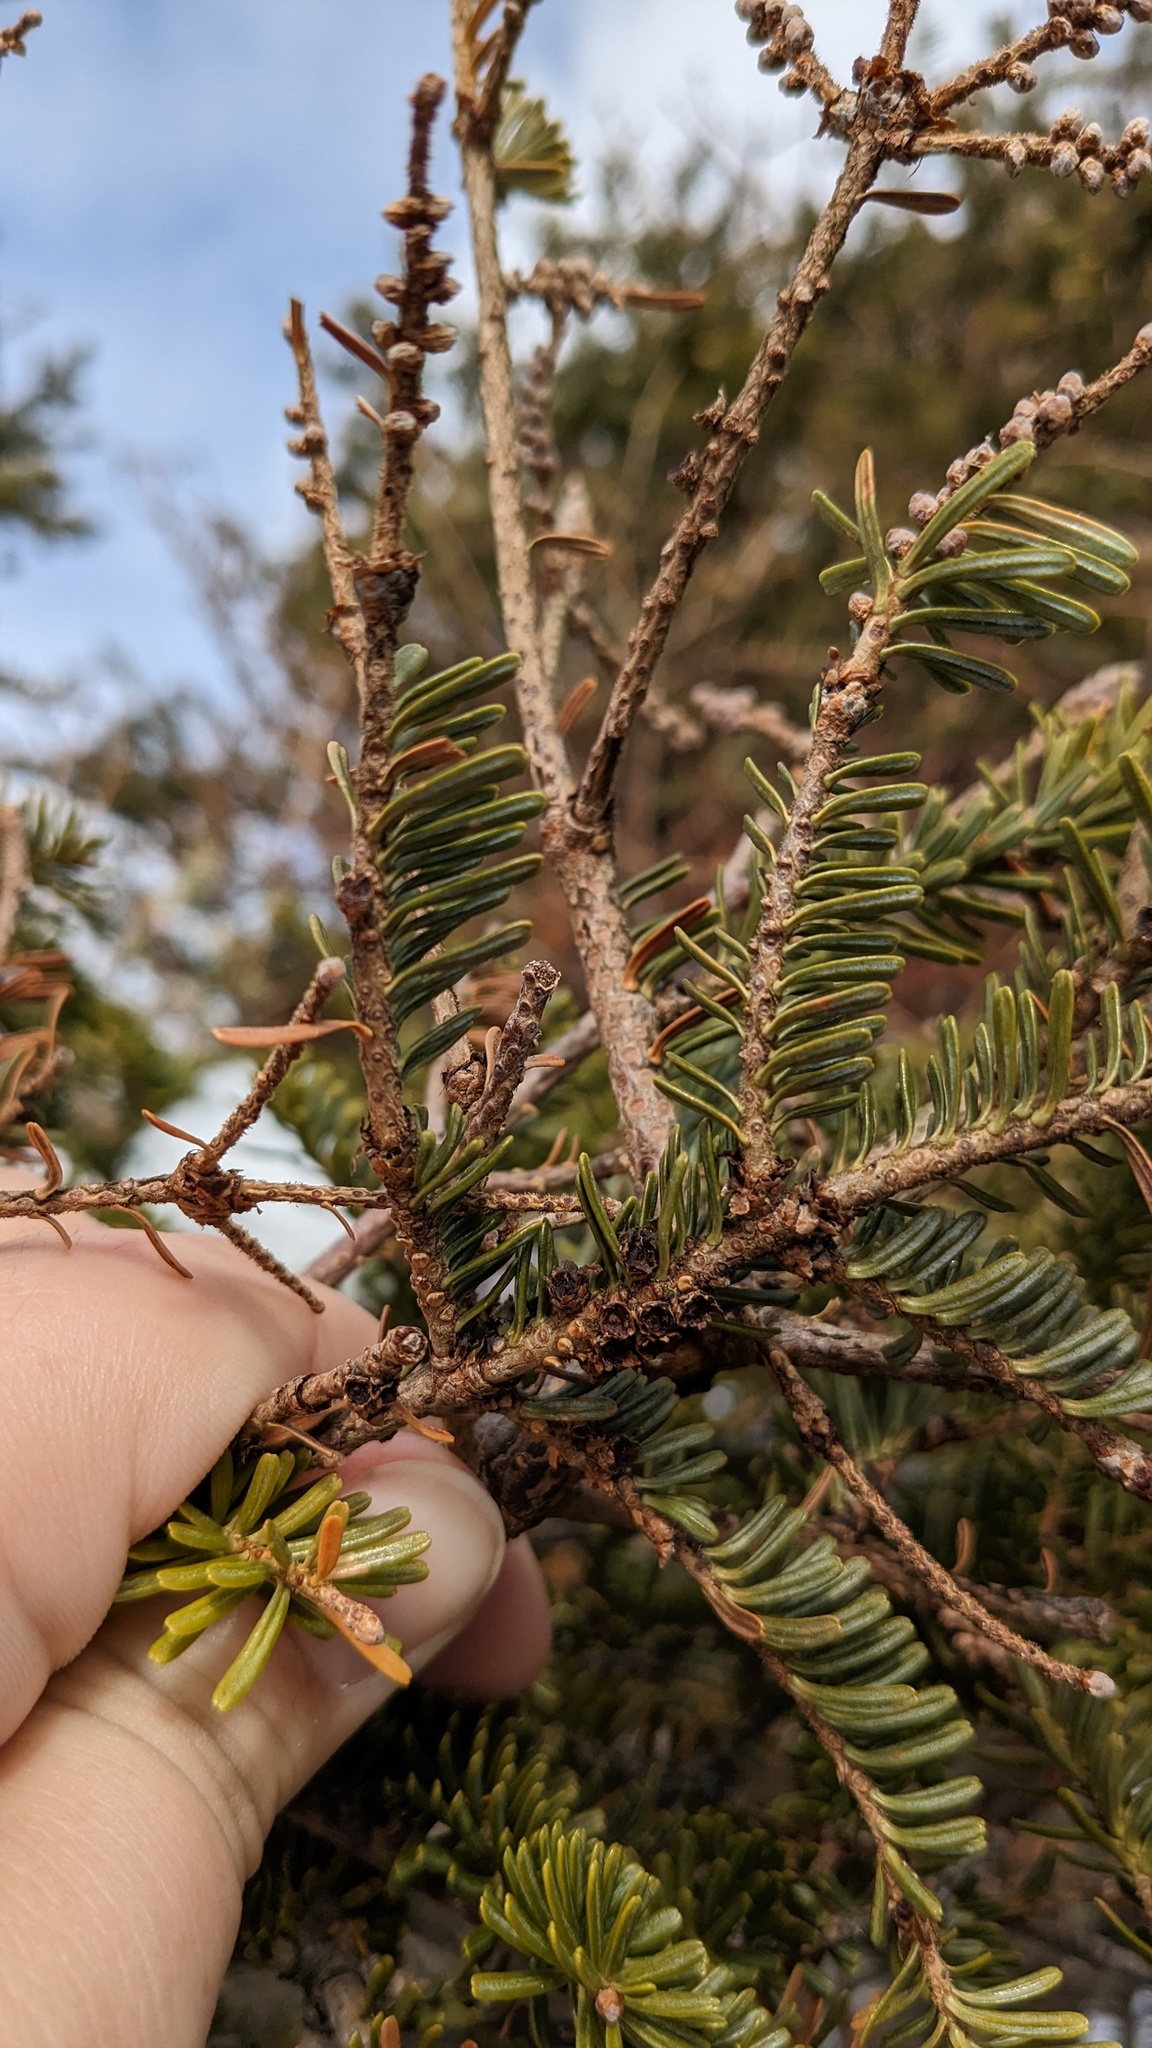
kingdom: Plantae
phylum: Tracheophyta
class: Pinopsida
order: Pinales
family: Pinaceae
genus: Abies
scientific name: Abies balsamea
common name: Balsam fir
